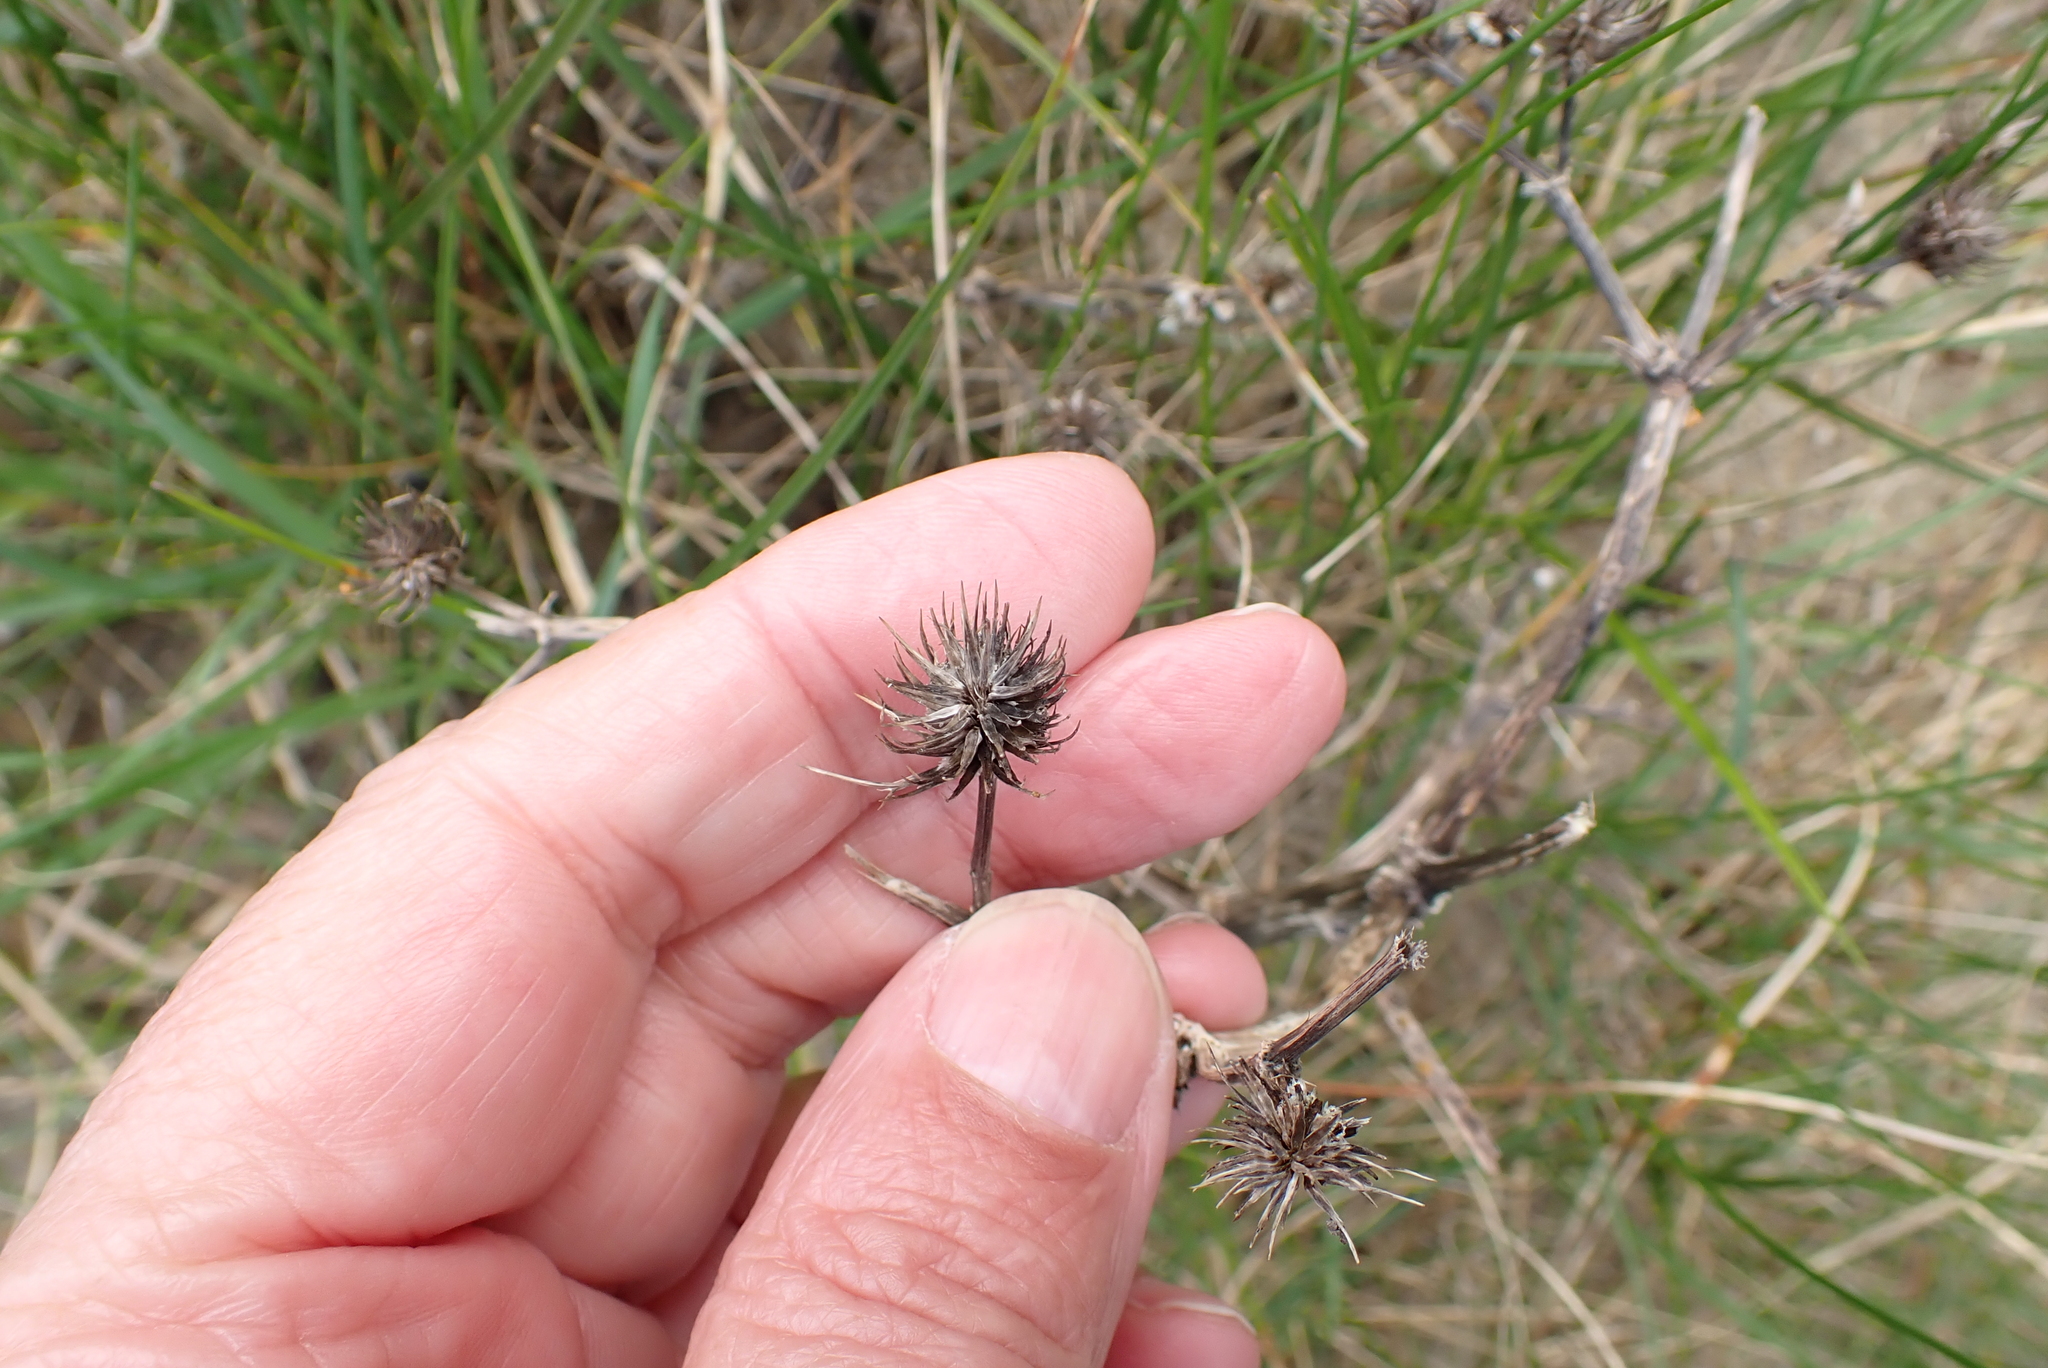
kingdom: Plantae
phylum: Tracheophyta
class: Magnoliopsida
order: Apiales
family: Apiaceae
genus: Eryngium
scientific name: Eryngium campestre
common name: Field eryngo
